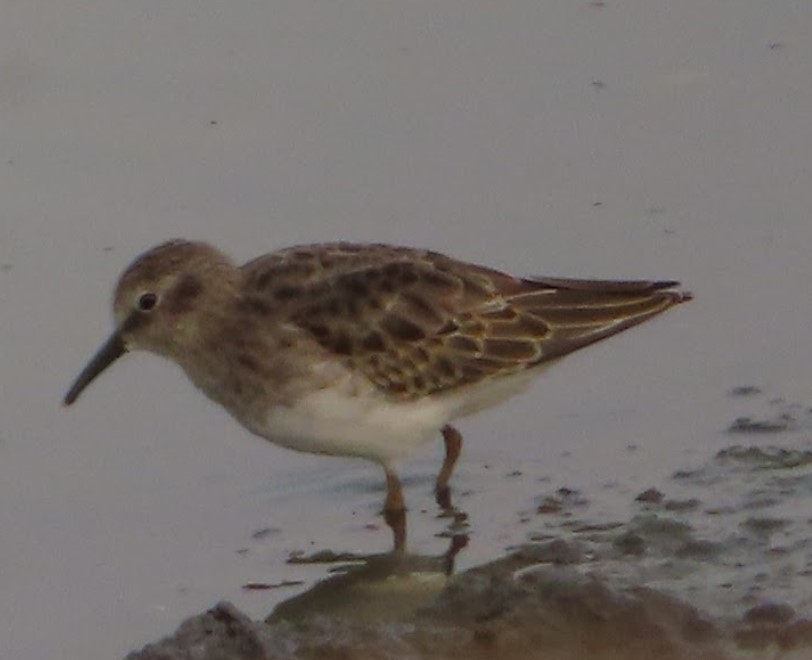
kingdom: Animalia
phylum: Chordata
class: Aves
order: Charadriiformes
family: Scolopacidae
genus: Calidris
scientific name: Calidris minutilla
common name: Least sandpiper
